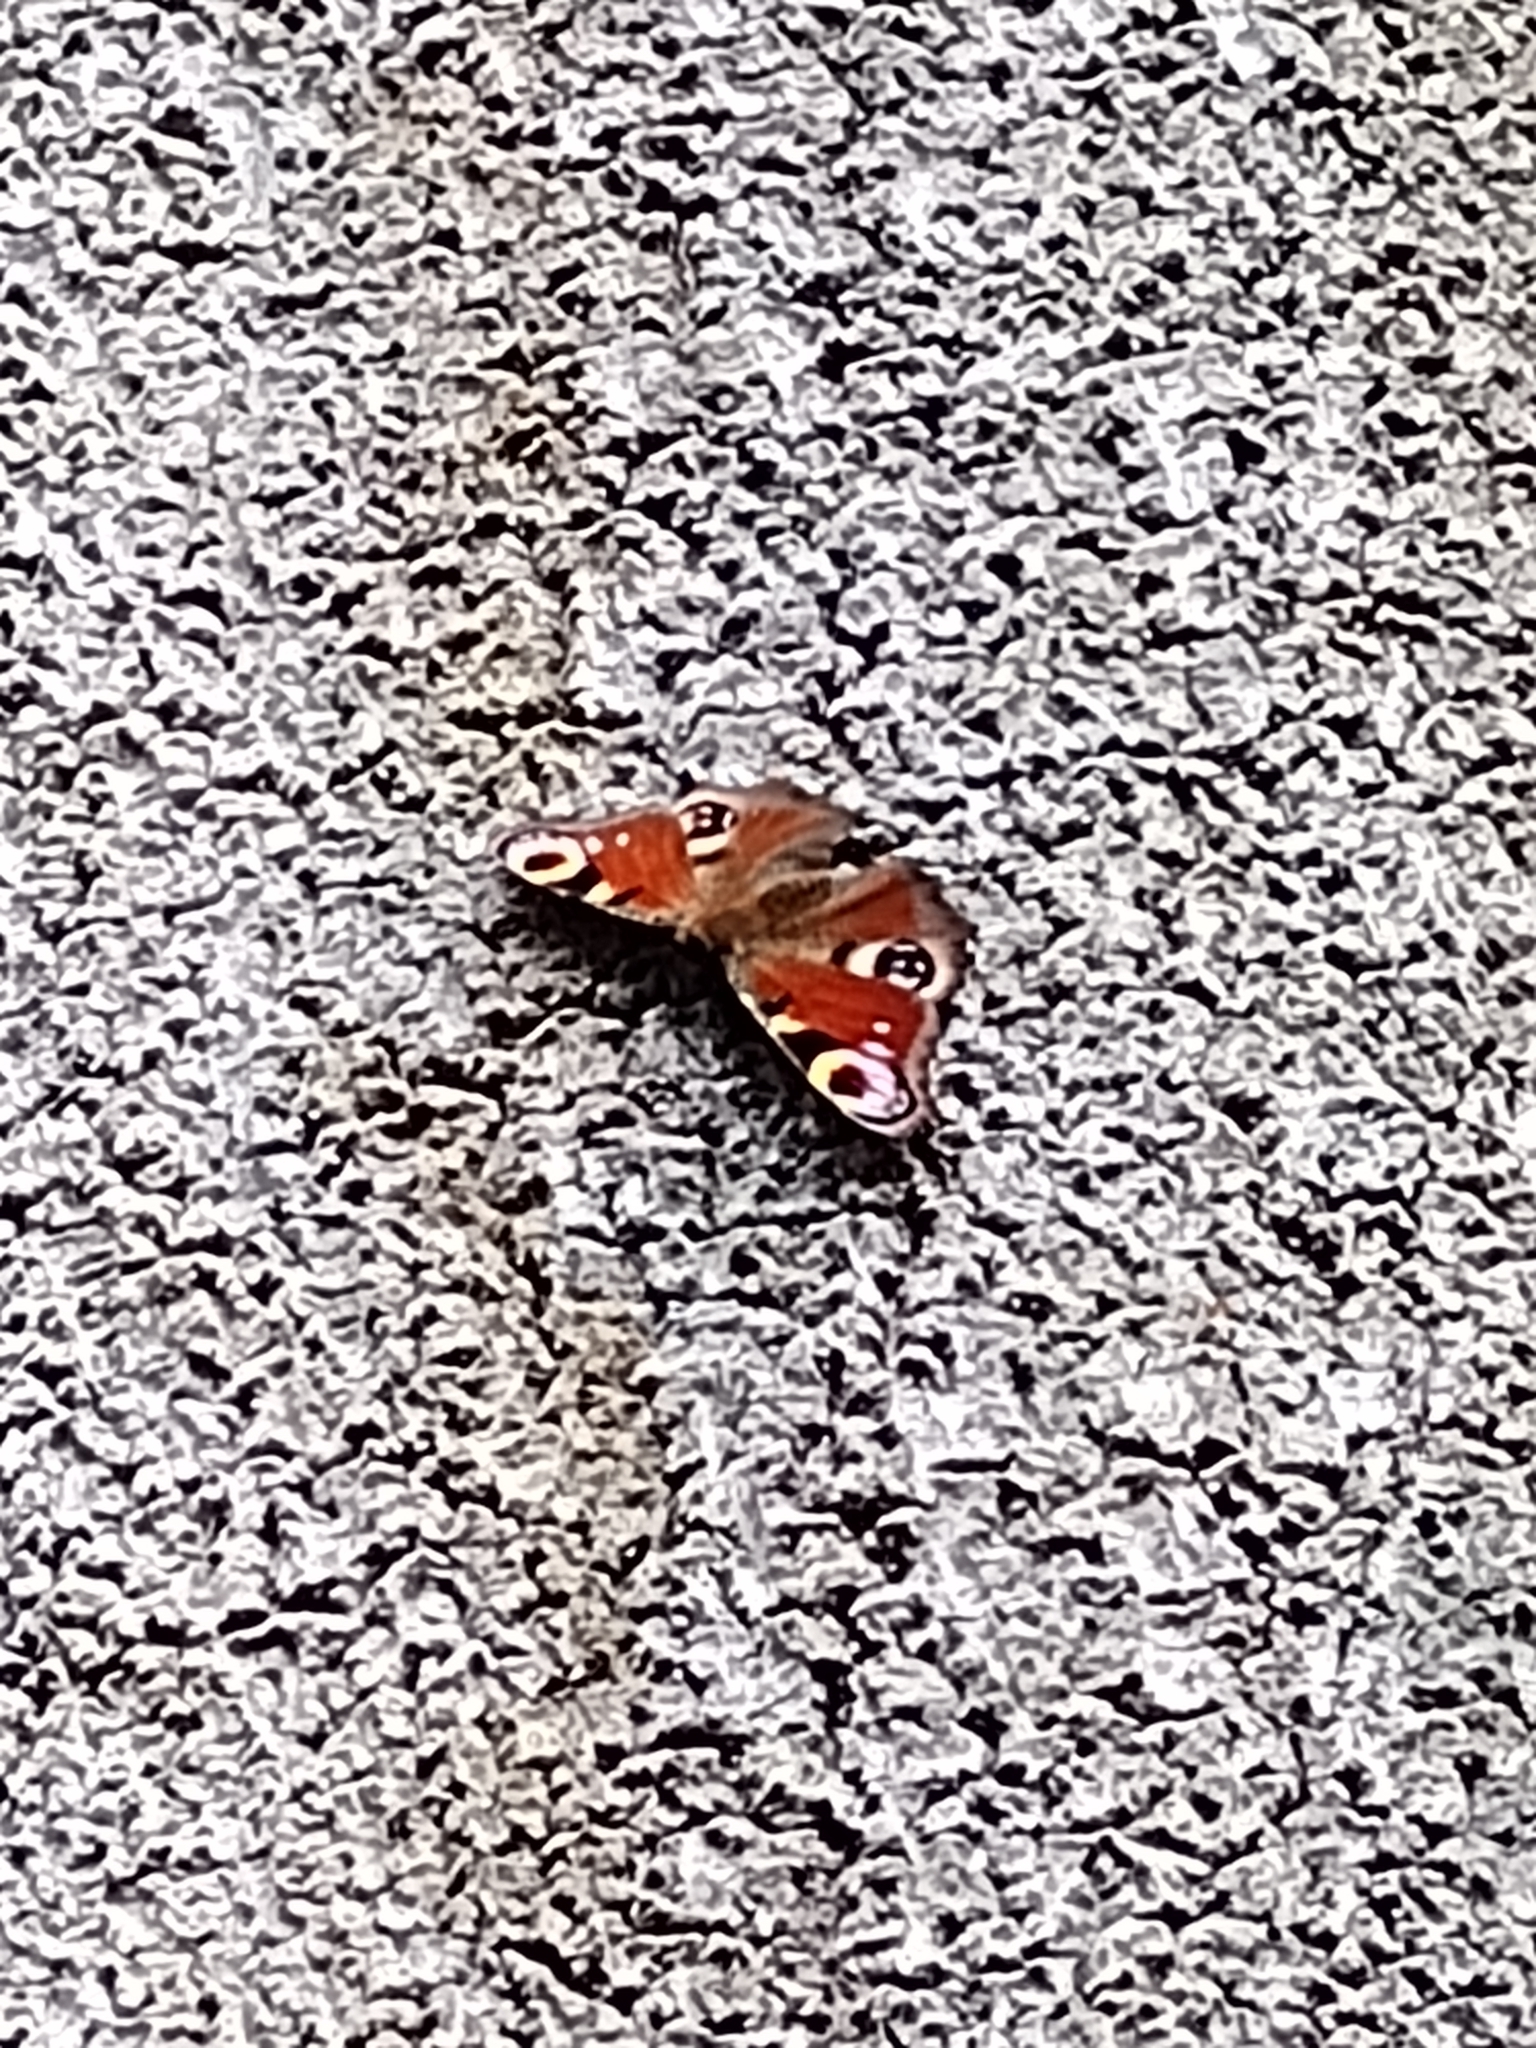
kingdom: Animalia
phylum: Arthropoda
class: Insecta
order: Lepidoptera
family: Nymphalidae
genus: Aglais
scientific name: Aglais io
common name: Peacock
